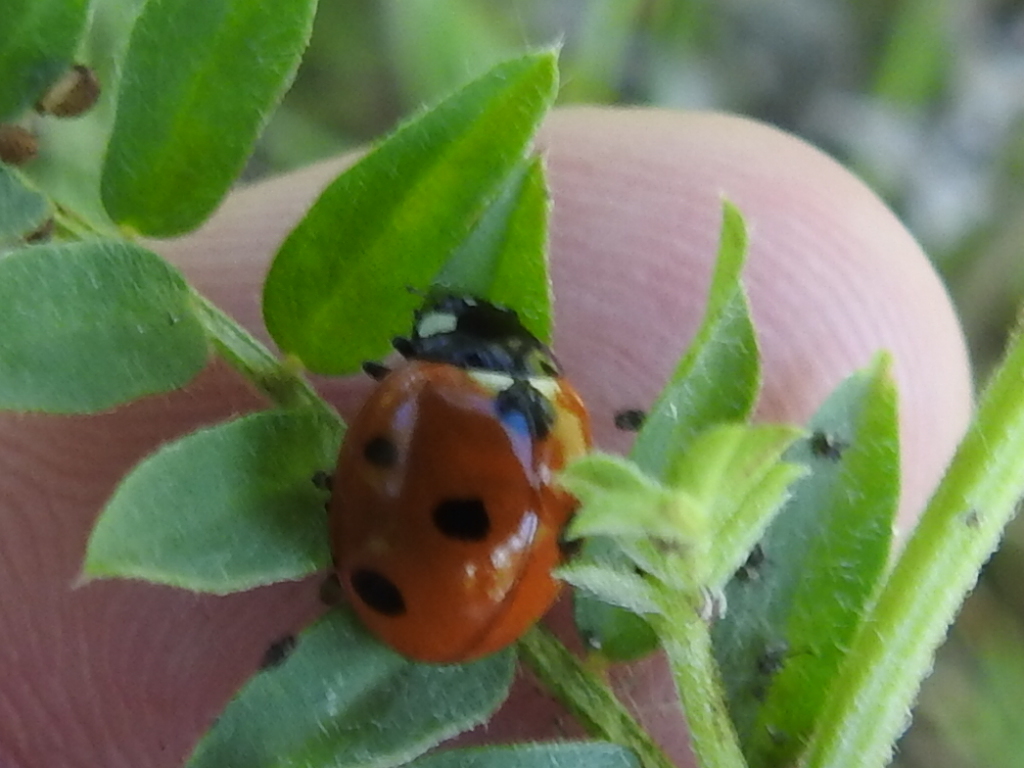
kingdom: Animalia
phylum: Arthropoda
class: Insecta
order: Coleoptera
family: Coccinellidae
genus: Coccinella
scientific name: Coccinella septempunctata
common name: Sevenspotted lady beetle
